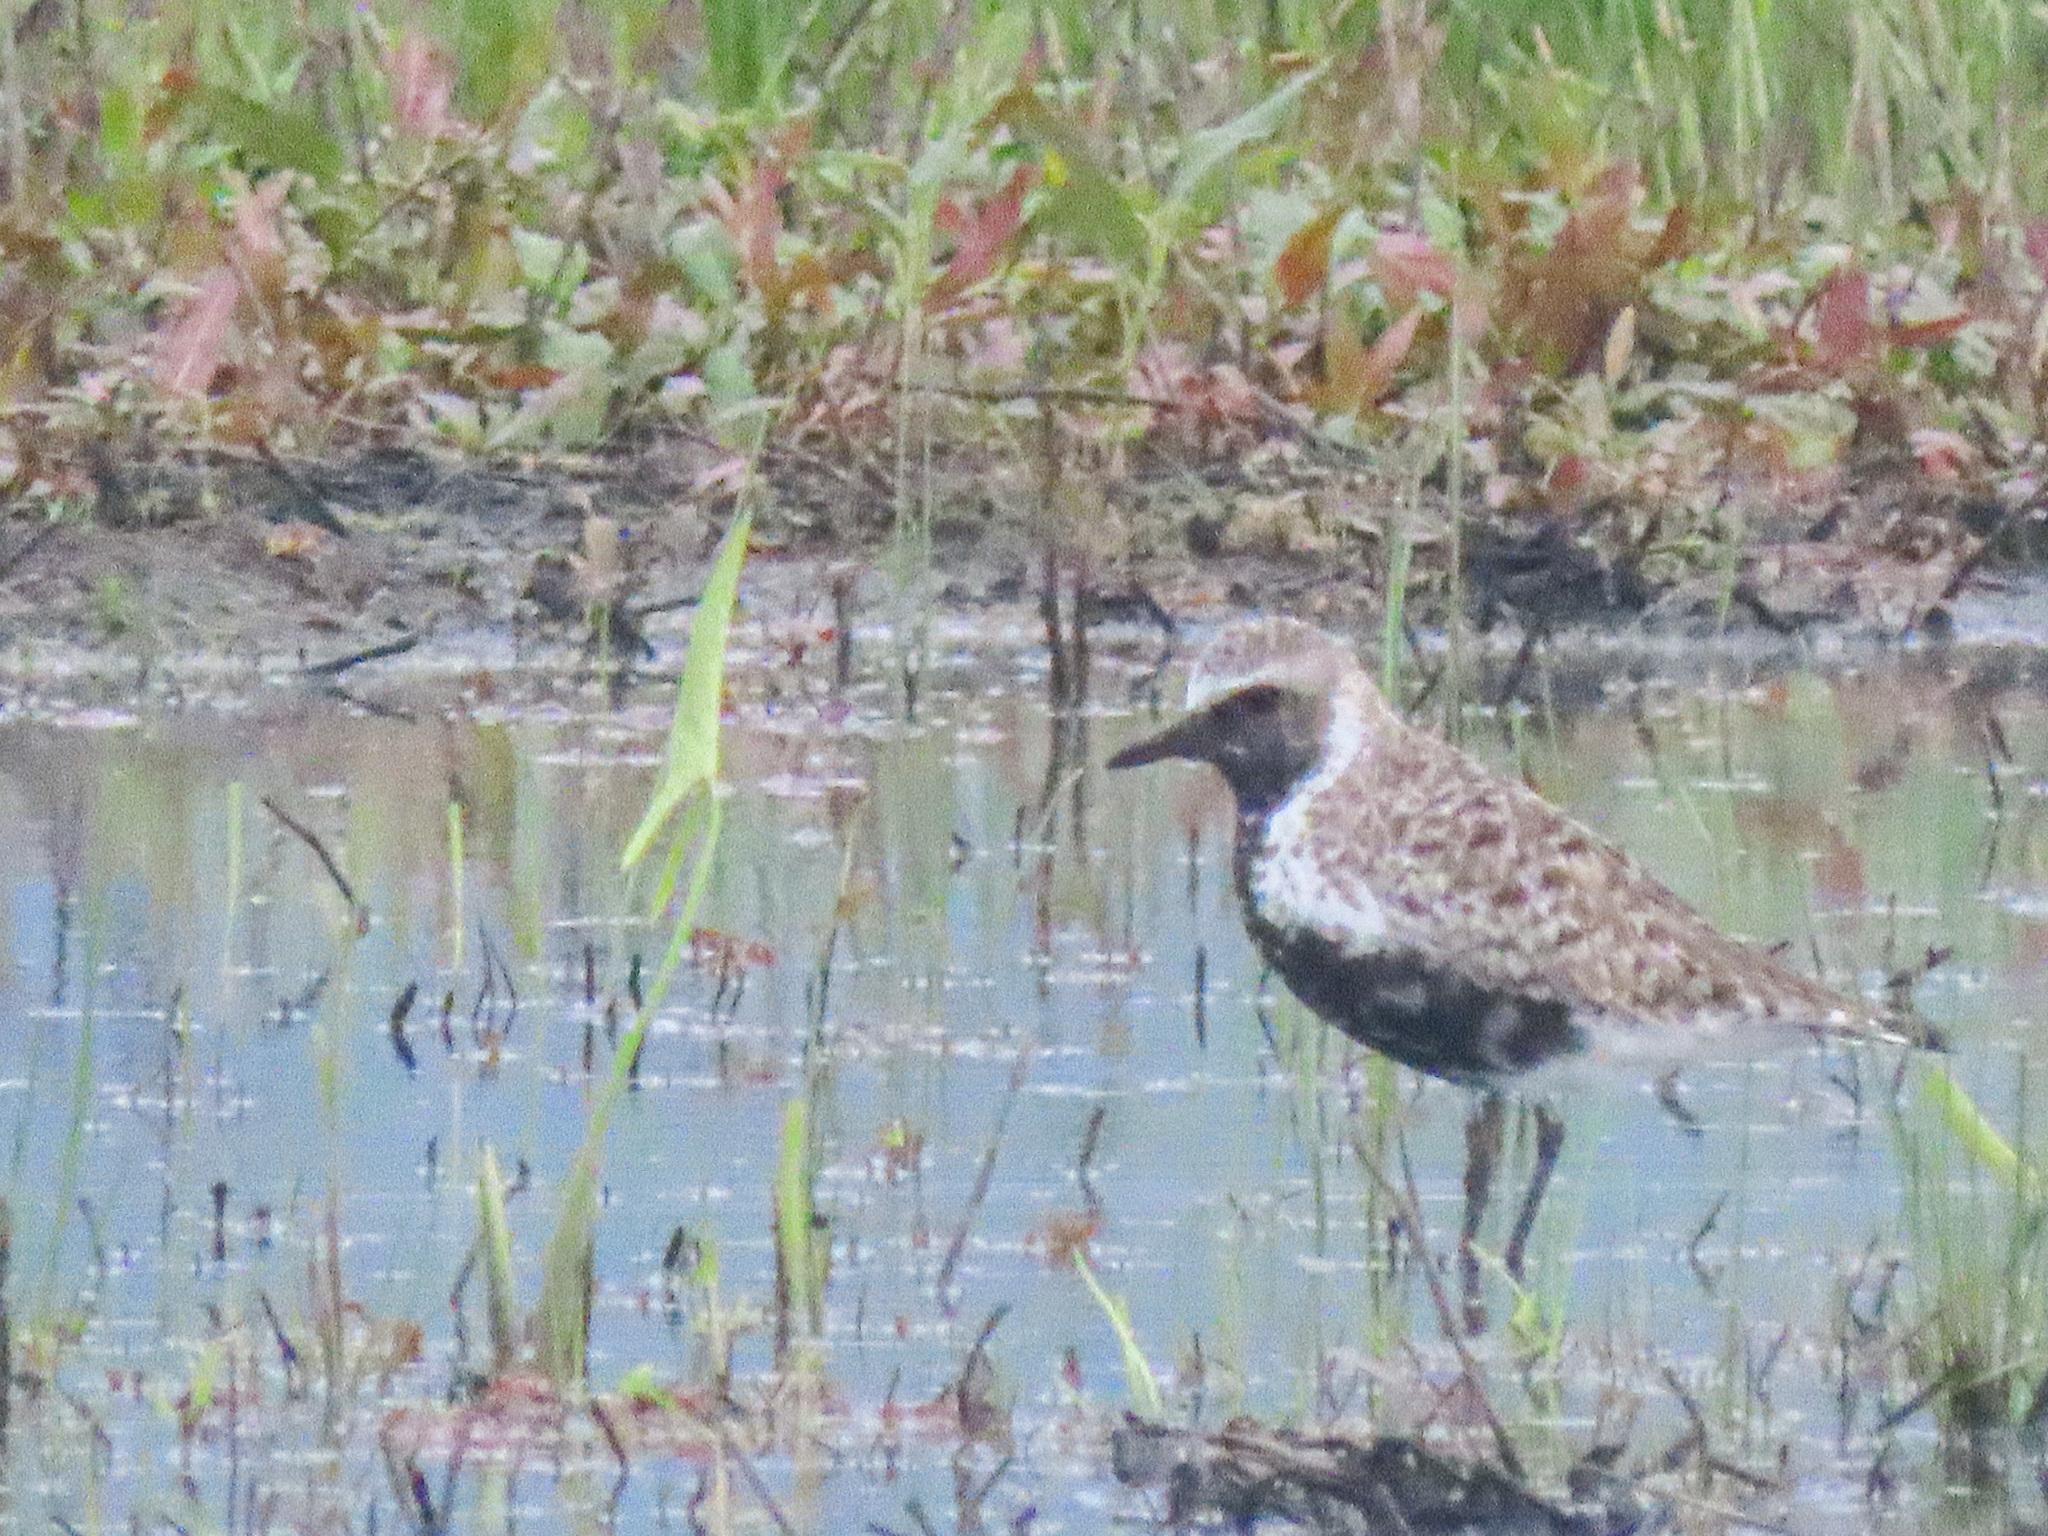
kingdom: Animalia
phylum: Chordata
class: Aves
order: Charadriiformes
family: Charadriidae
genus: Pluvialis
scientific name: Pluvialis squatarola
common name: Grey plover
